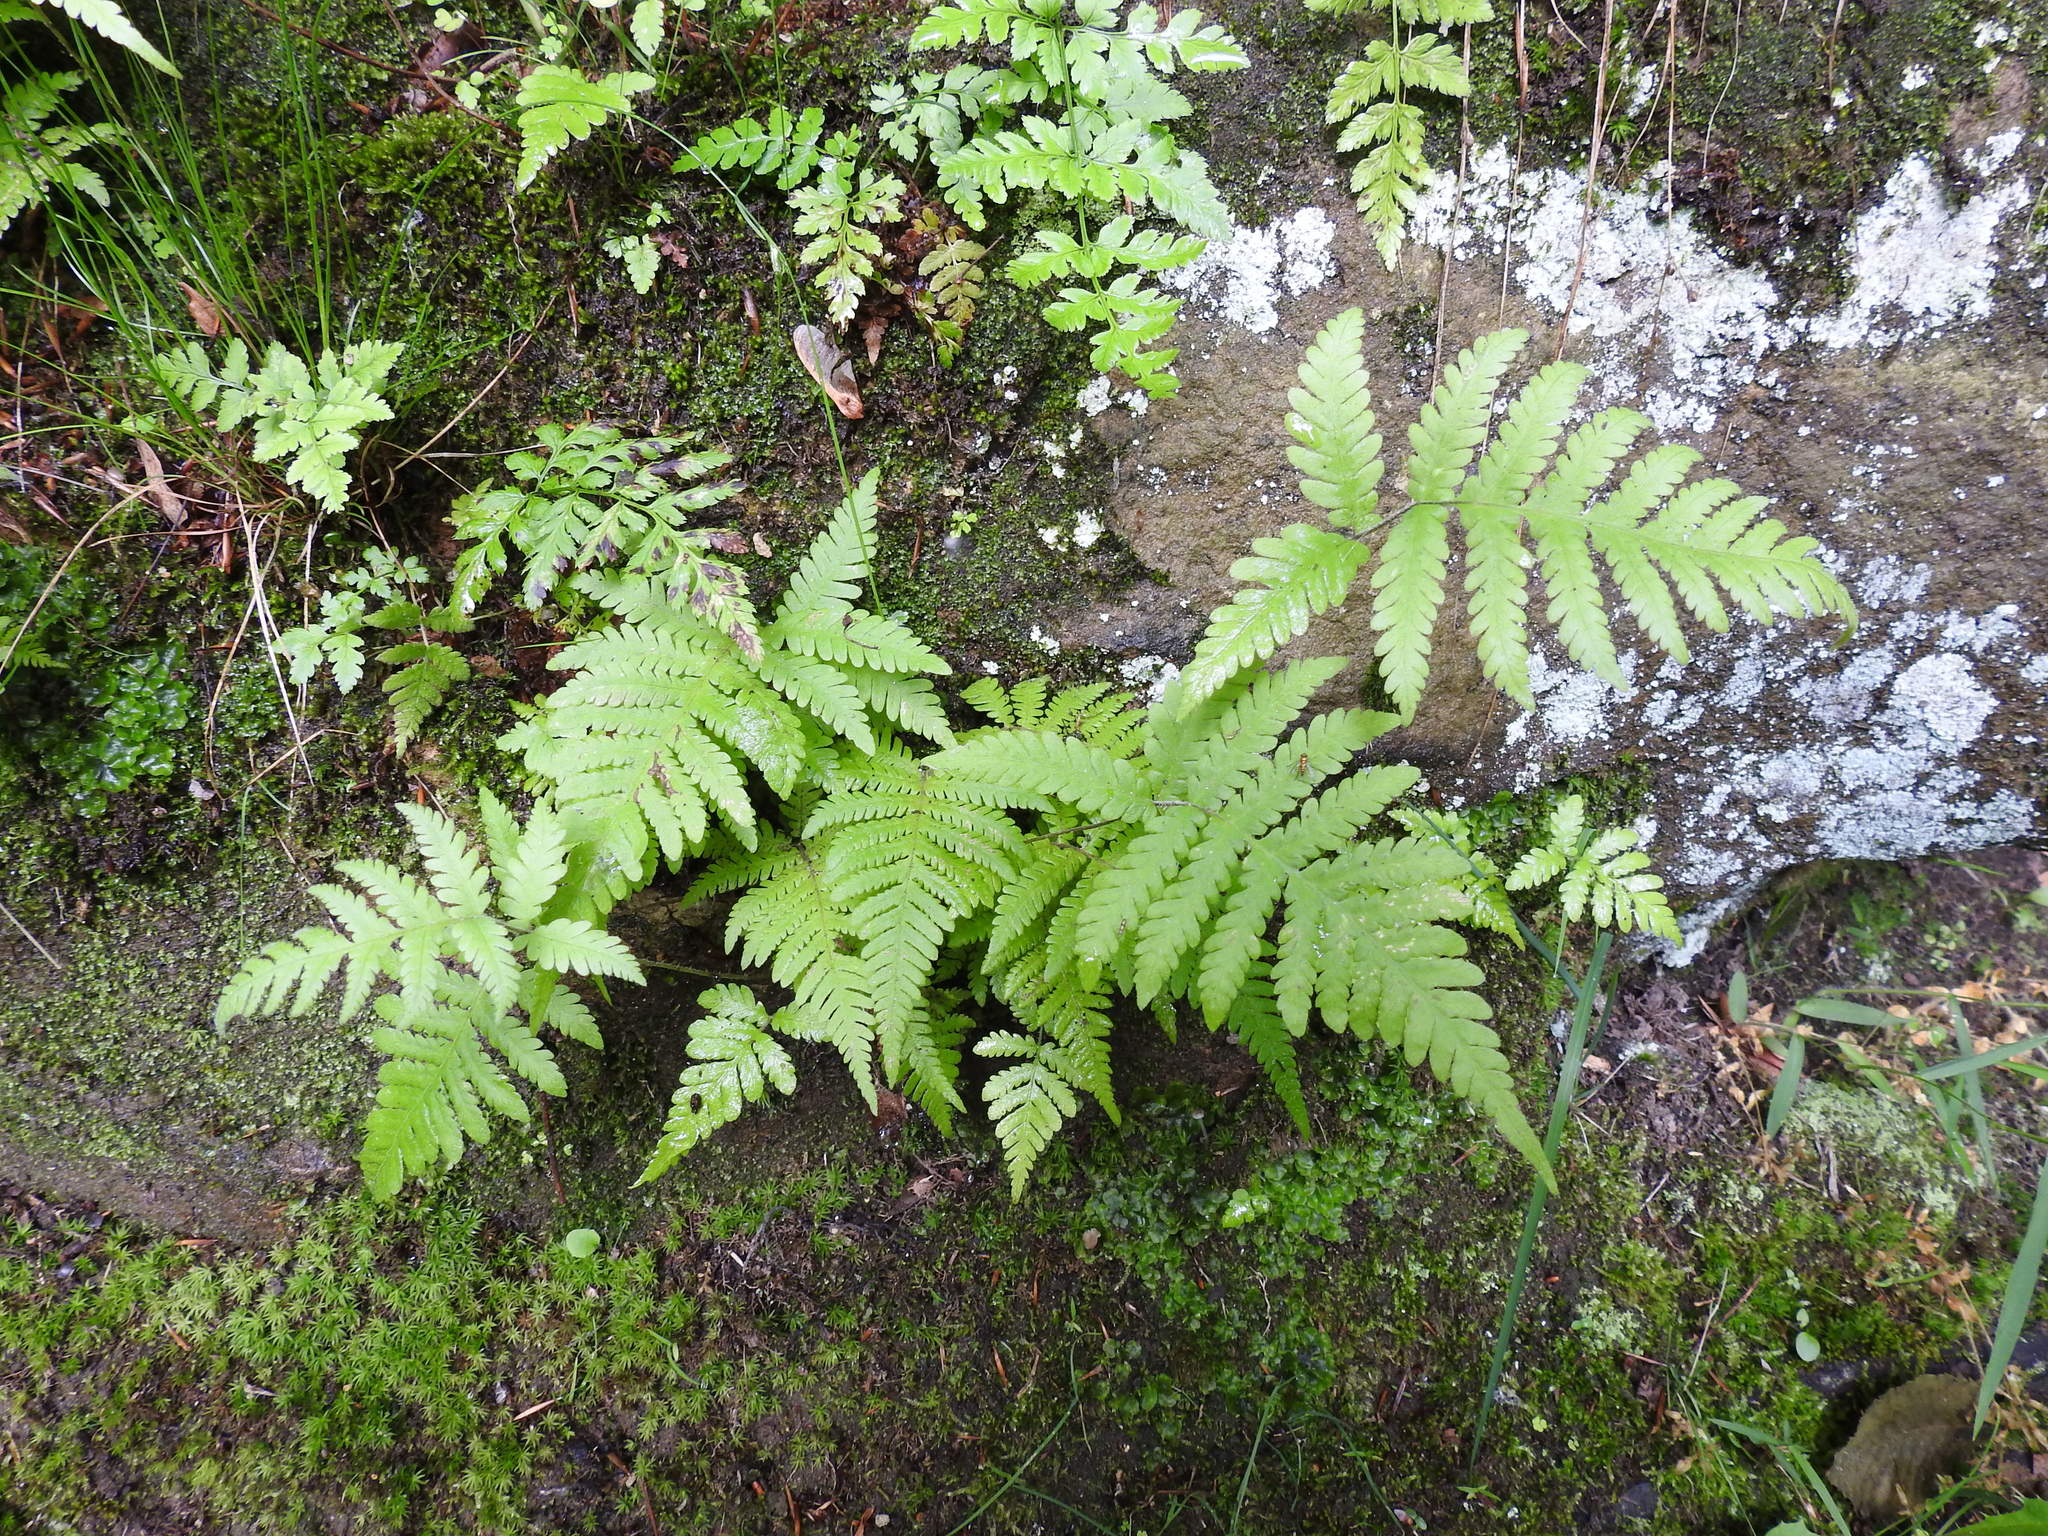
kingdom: Plantae
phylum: Tracheophyta
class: Polypodiopsida
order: Polypodiales
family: Thelypteridaceae
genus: Phegopteris
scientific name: Phegopteris connectilis
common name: Beech fern
